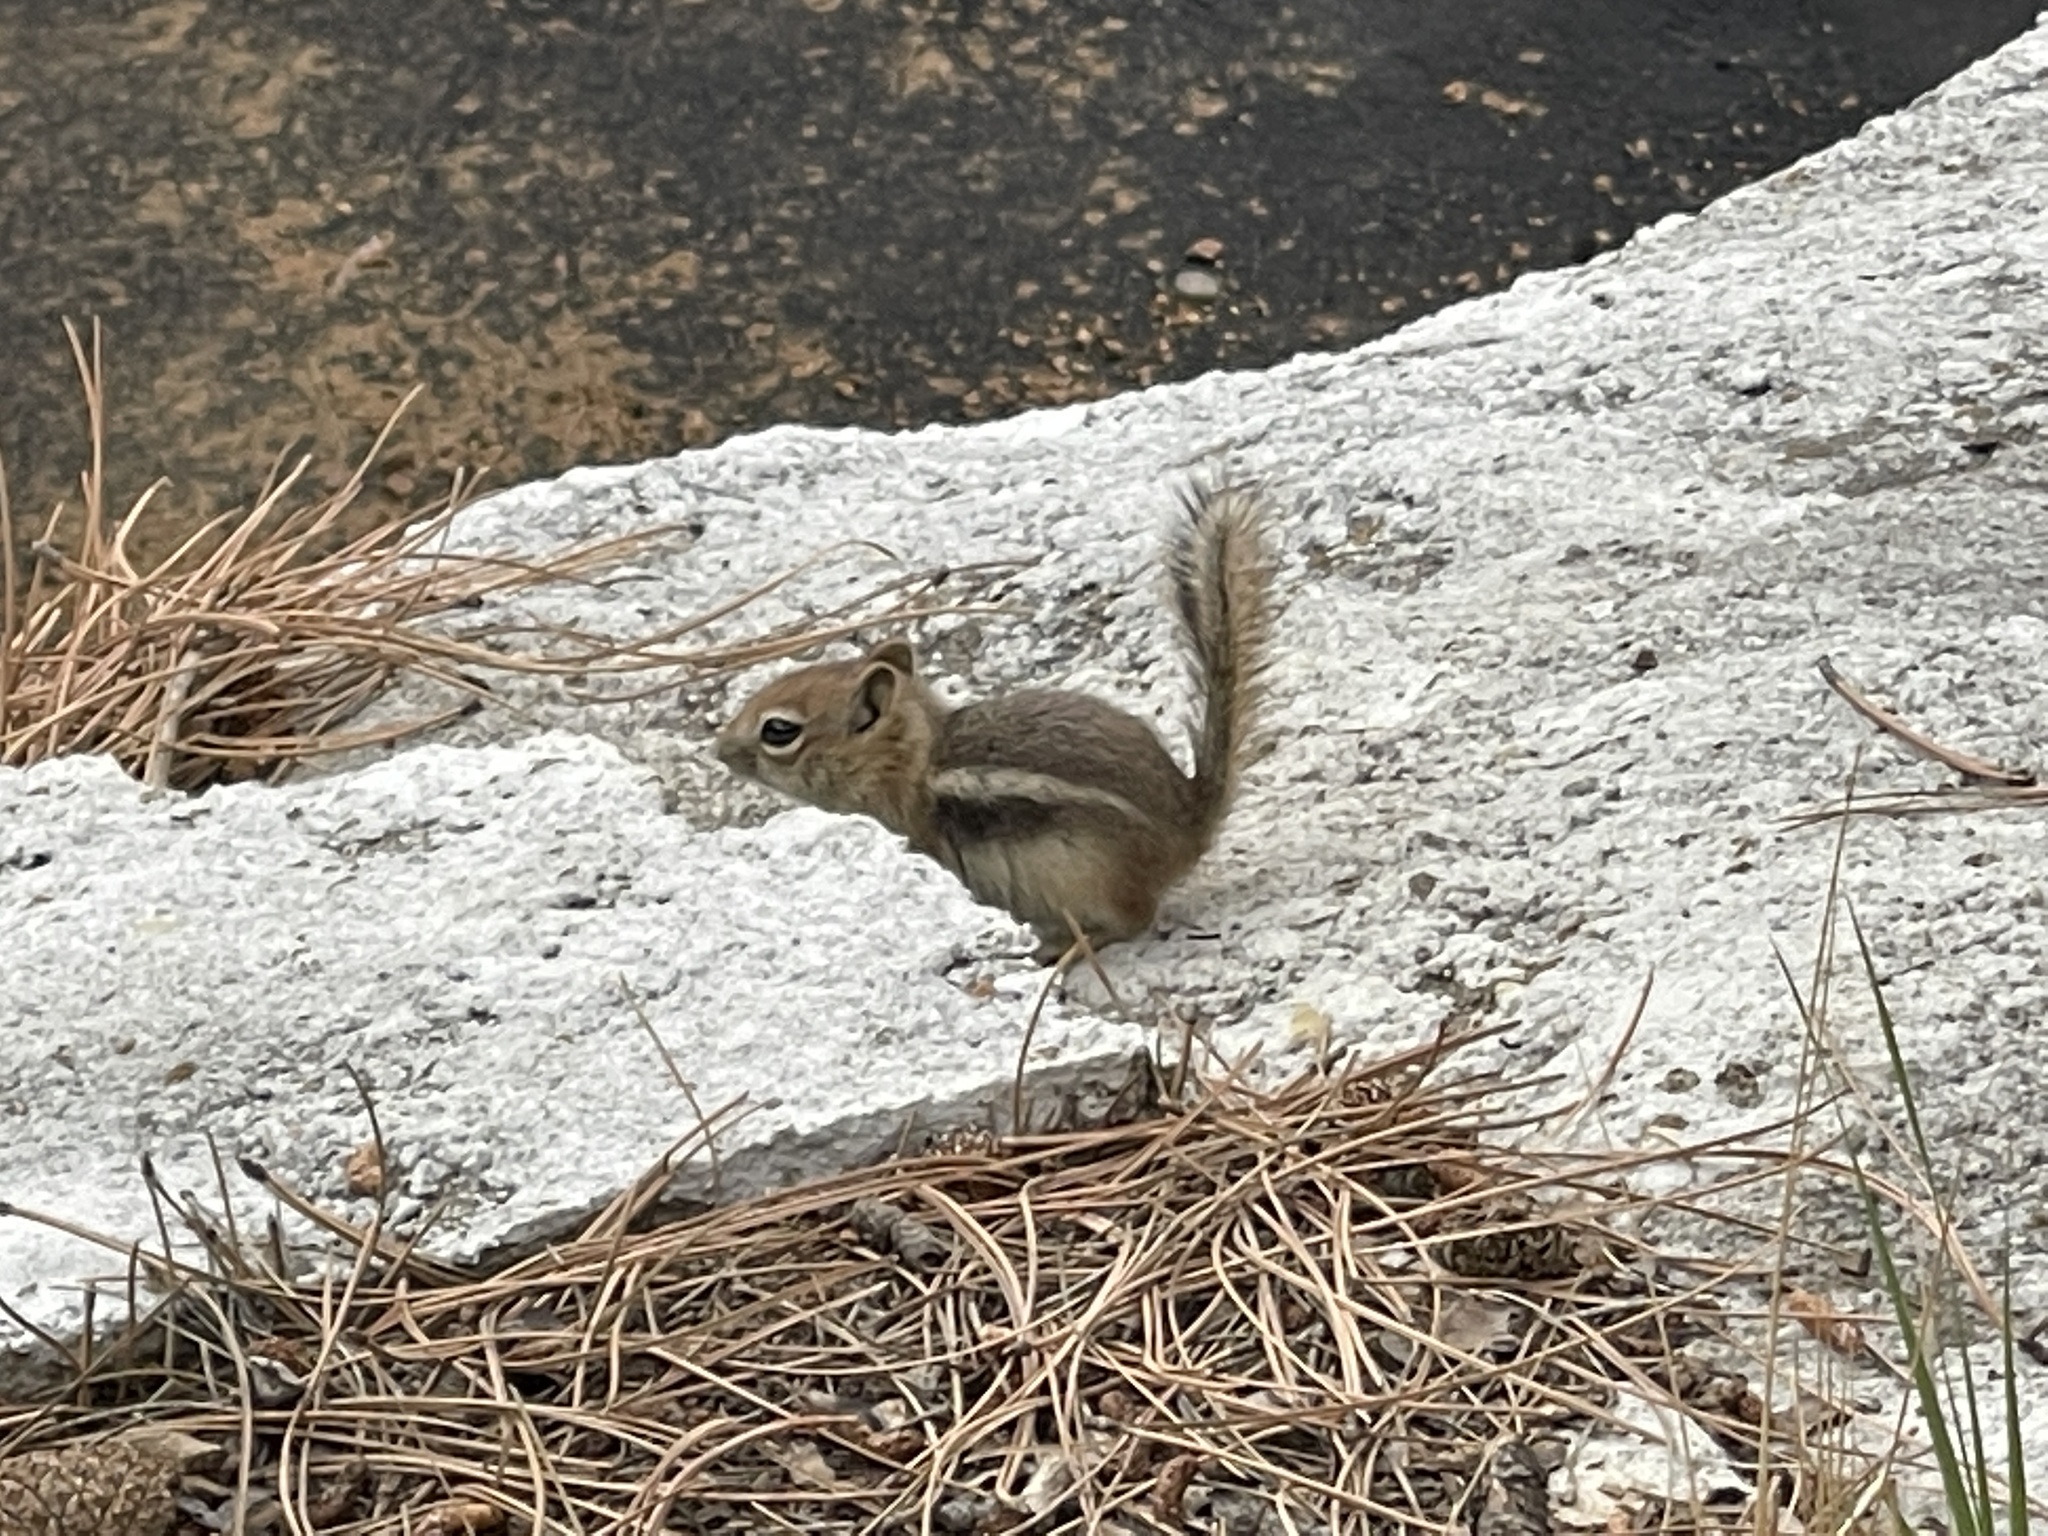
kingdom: Animalia
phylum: Chordata
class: Mammalia
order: Rodentia
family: Sciuridae
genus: Callospermophilus
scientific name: Callospermophilus lateralis
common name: Golden-mantled ground squirrel
